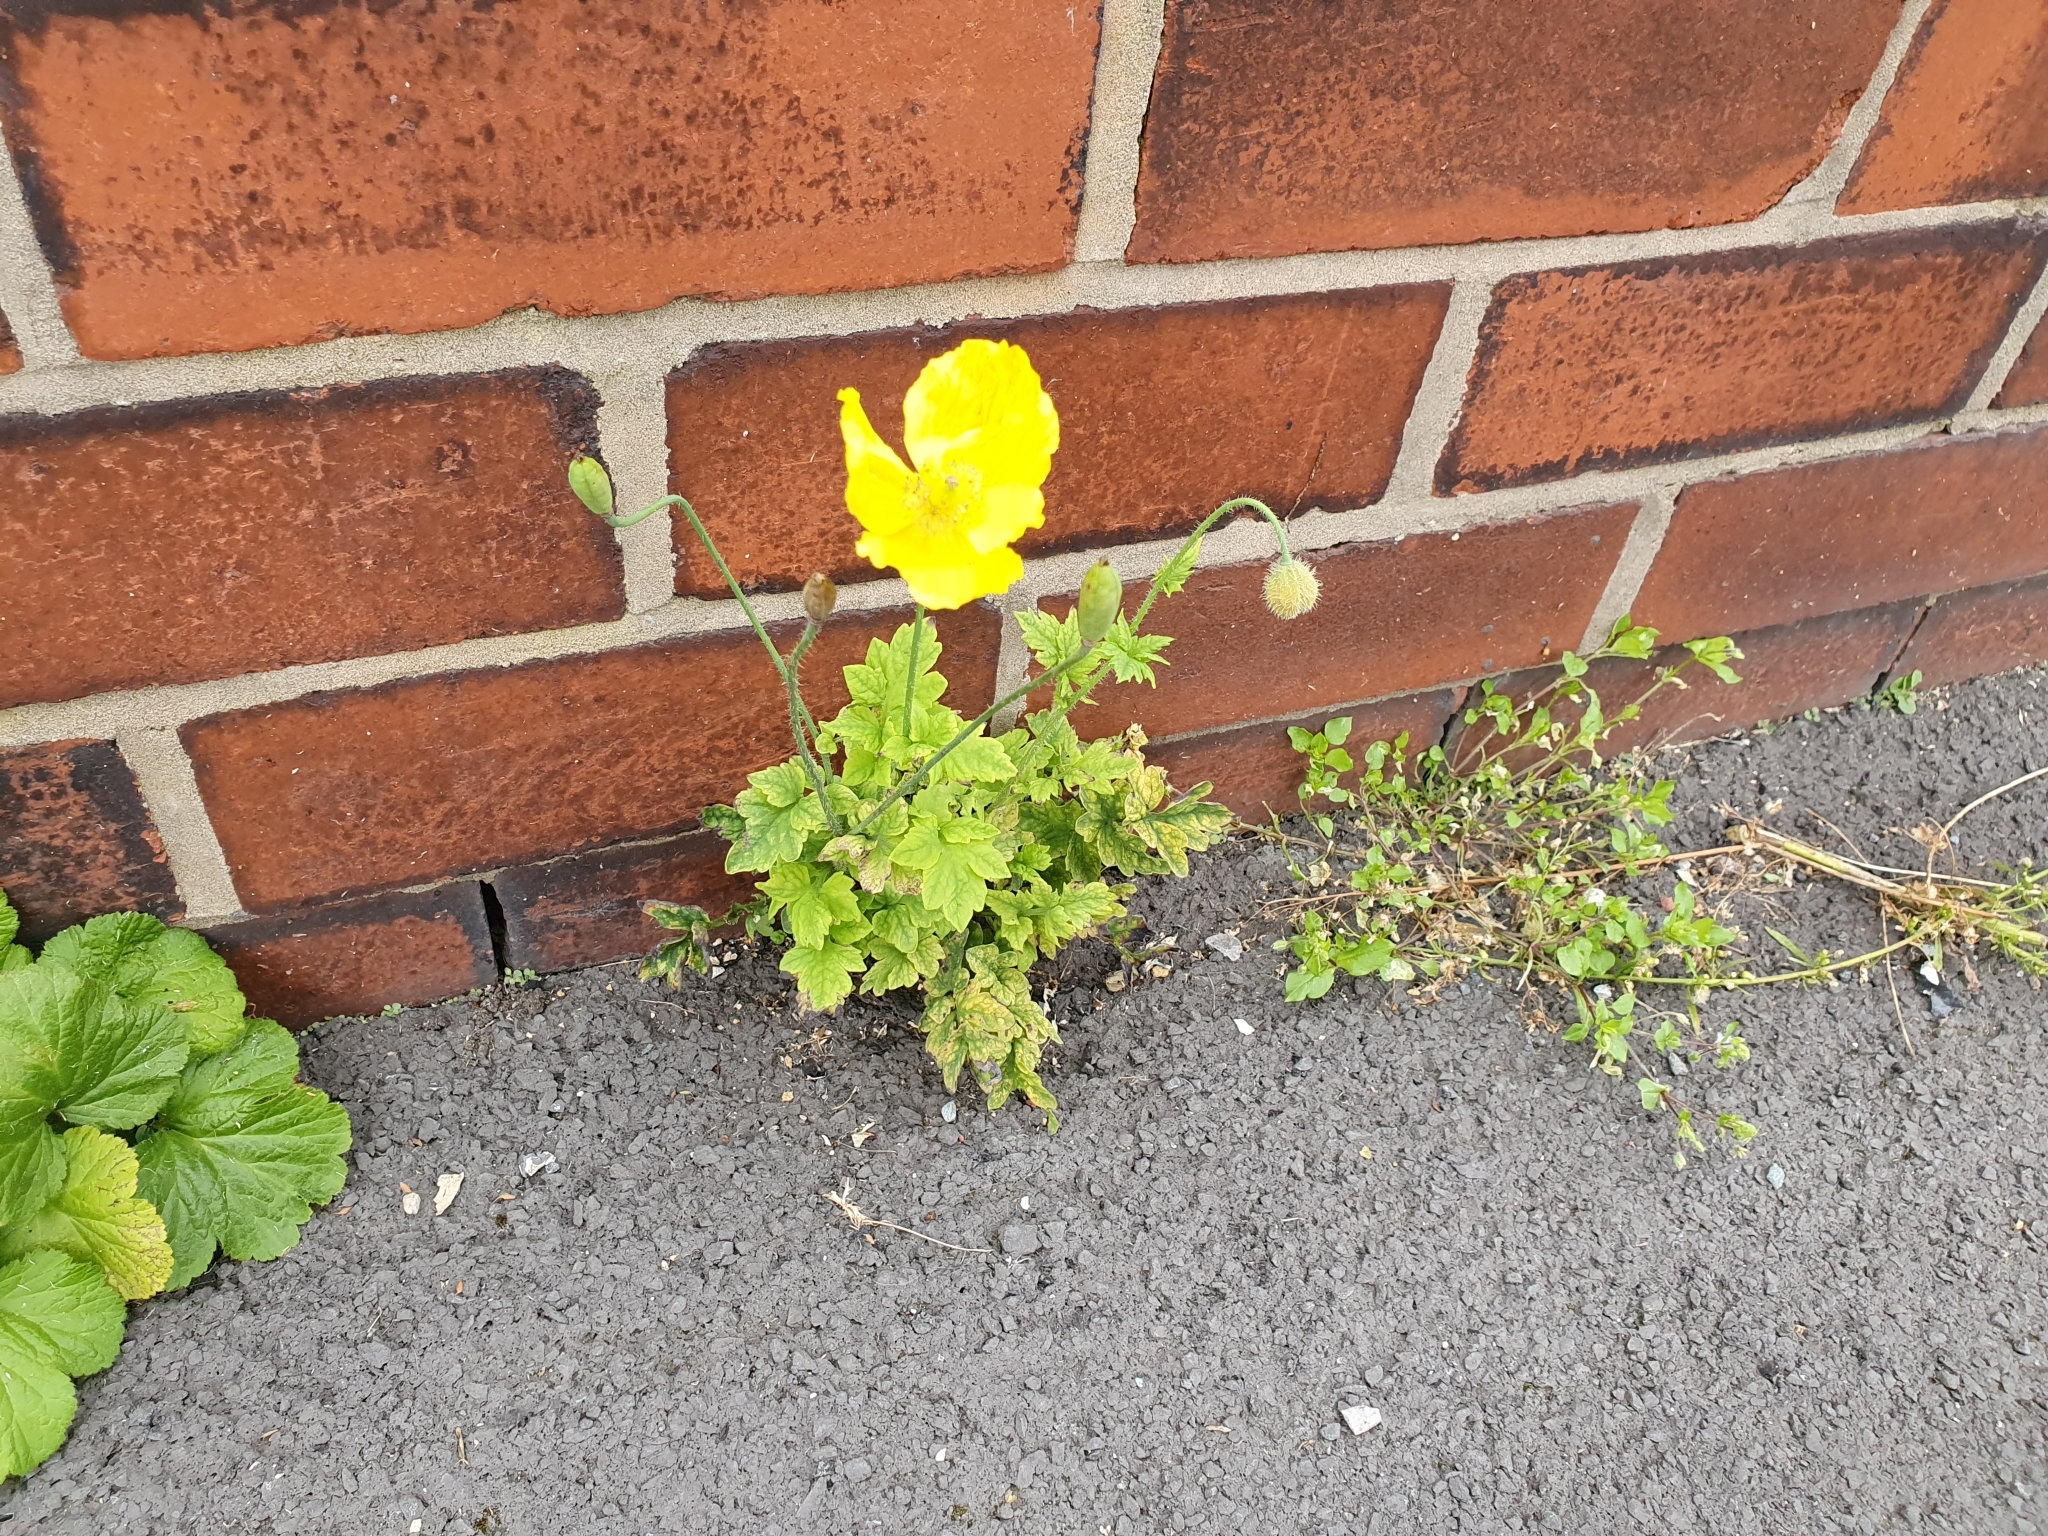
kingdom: Plantae
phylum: Tracheophyta
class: Magnoliopsida
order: Ranunculales
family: Papaveraceae
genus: Papaver
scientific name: Papaver cambricum
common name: Poppy
